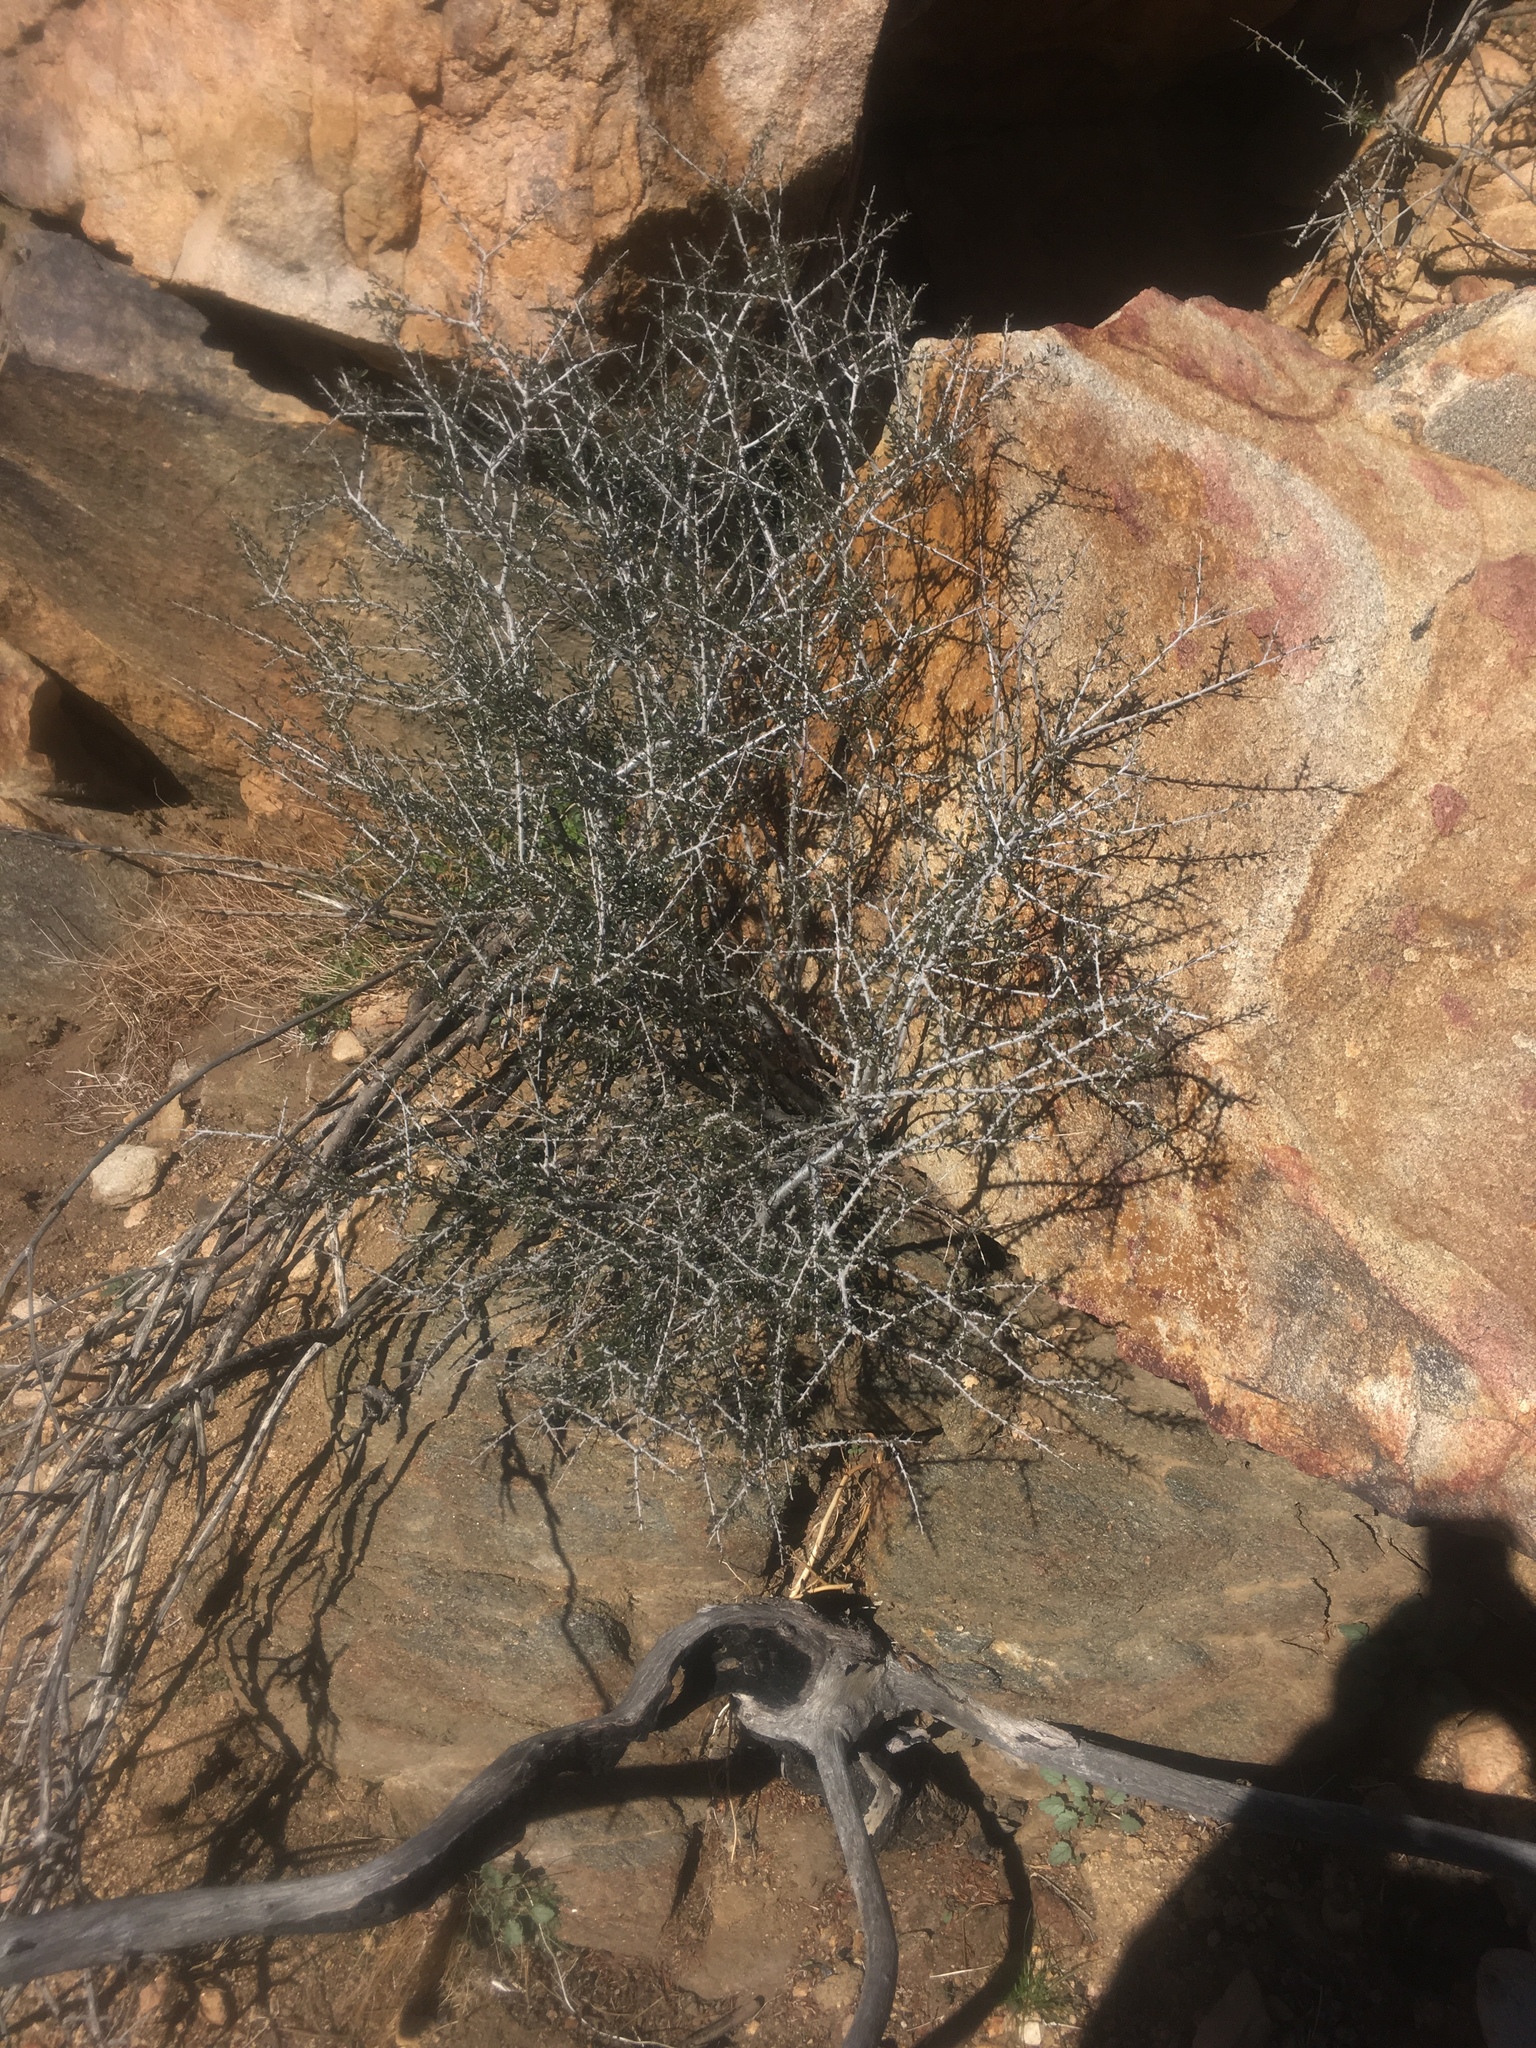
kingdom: Plantae
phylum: Tracheophyta
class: Magnoliopsida
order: Rosales
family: Rosaceae
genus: Prunus
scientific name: Prunus fasciculata
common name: Desert almond
